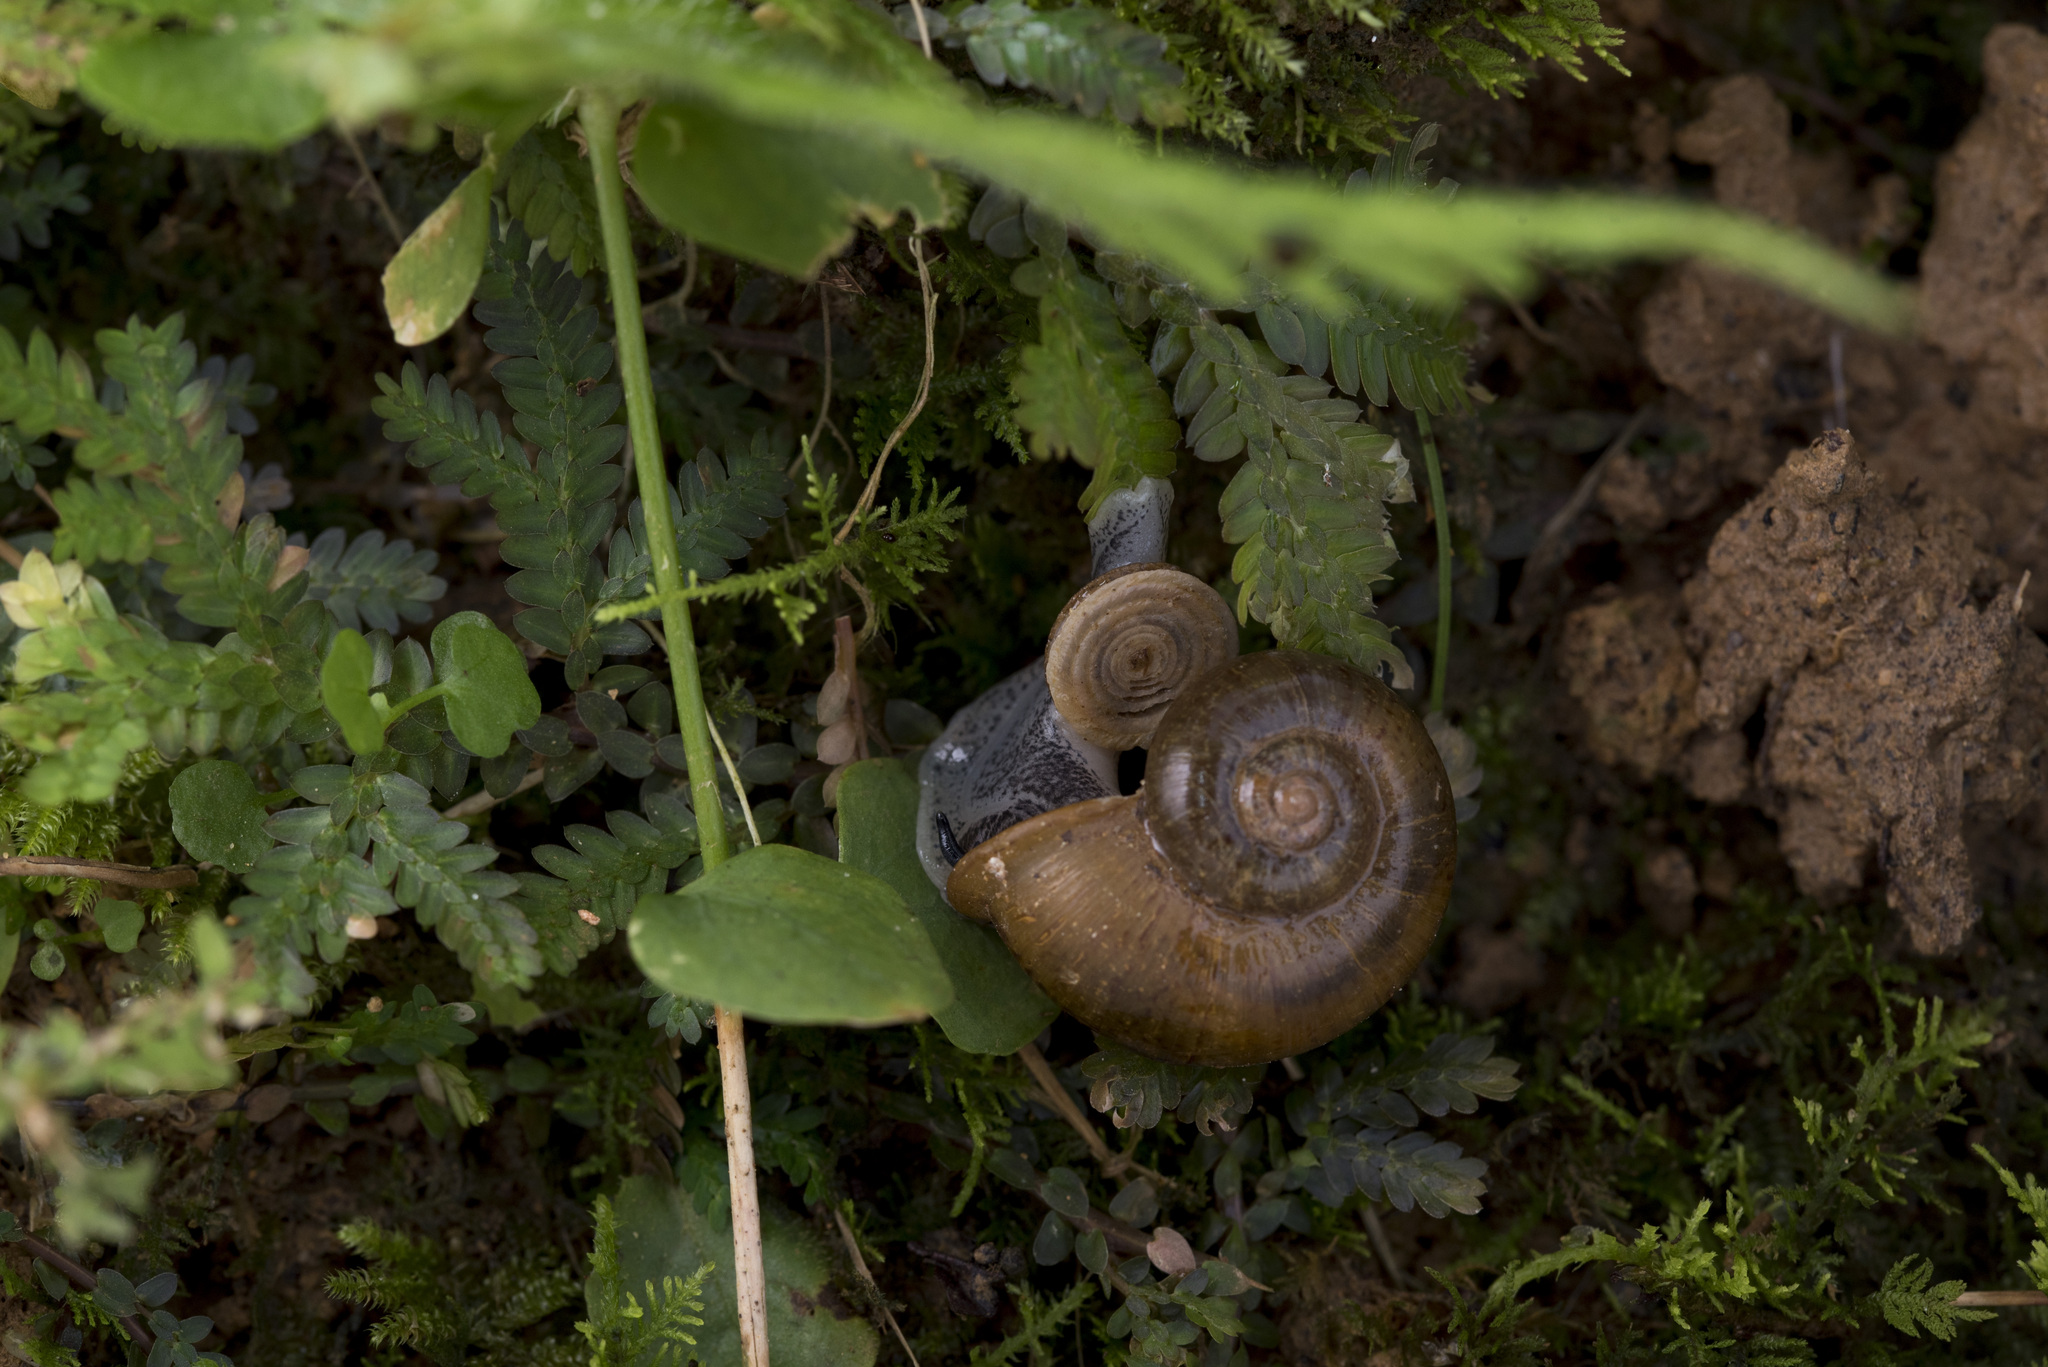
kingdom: Animalia
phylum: Mollusca
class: Gastropoda
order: Architaenioglossa
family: Cyclophoridae
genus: Cyclotus
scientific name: Cyclotus taivanus
